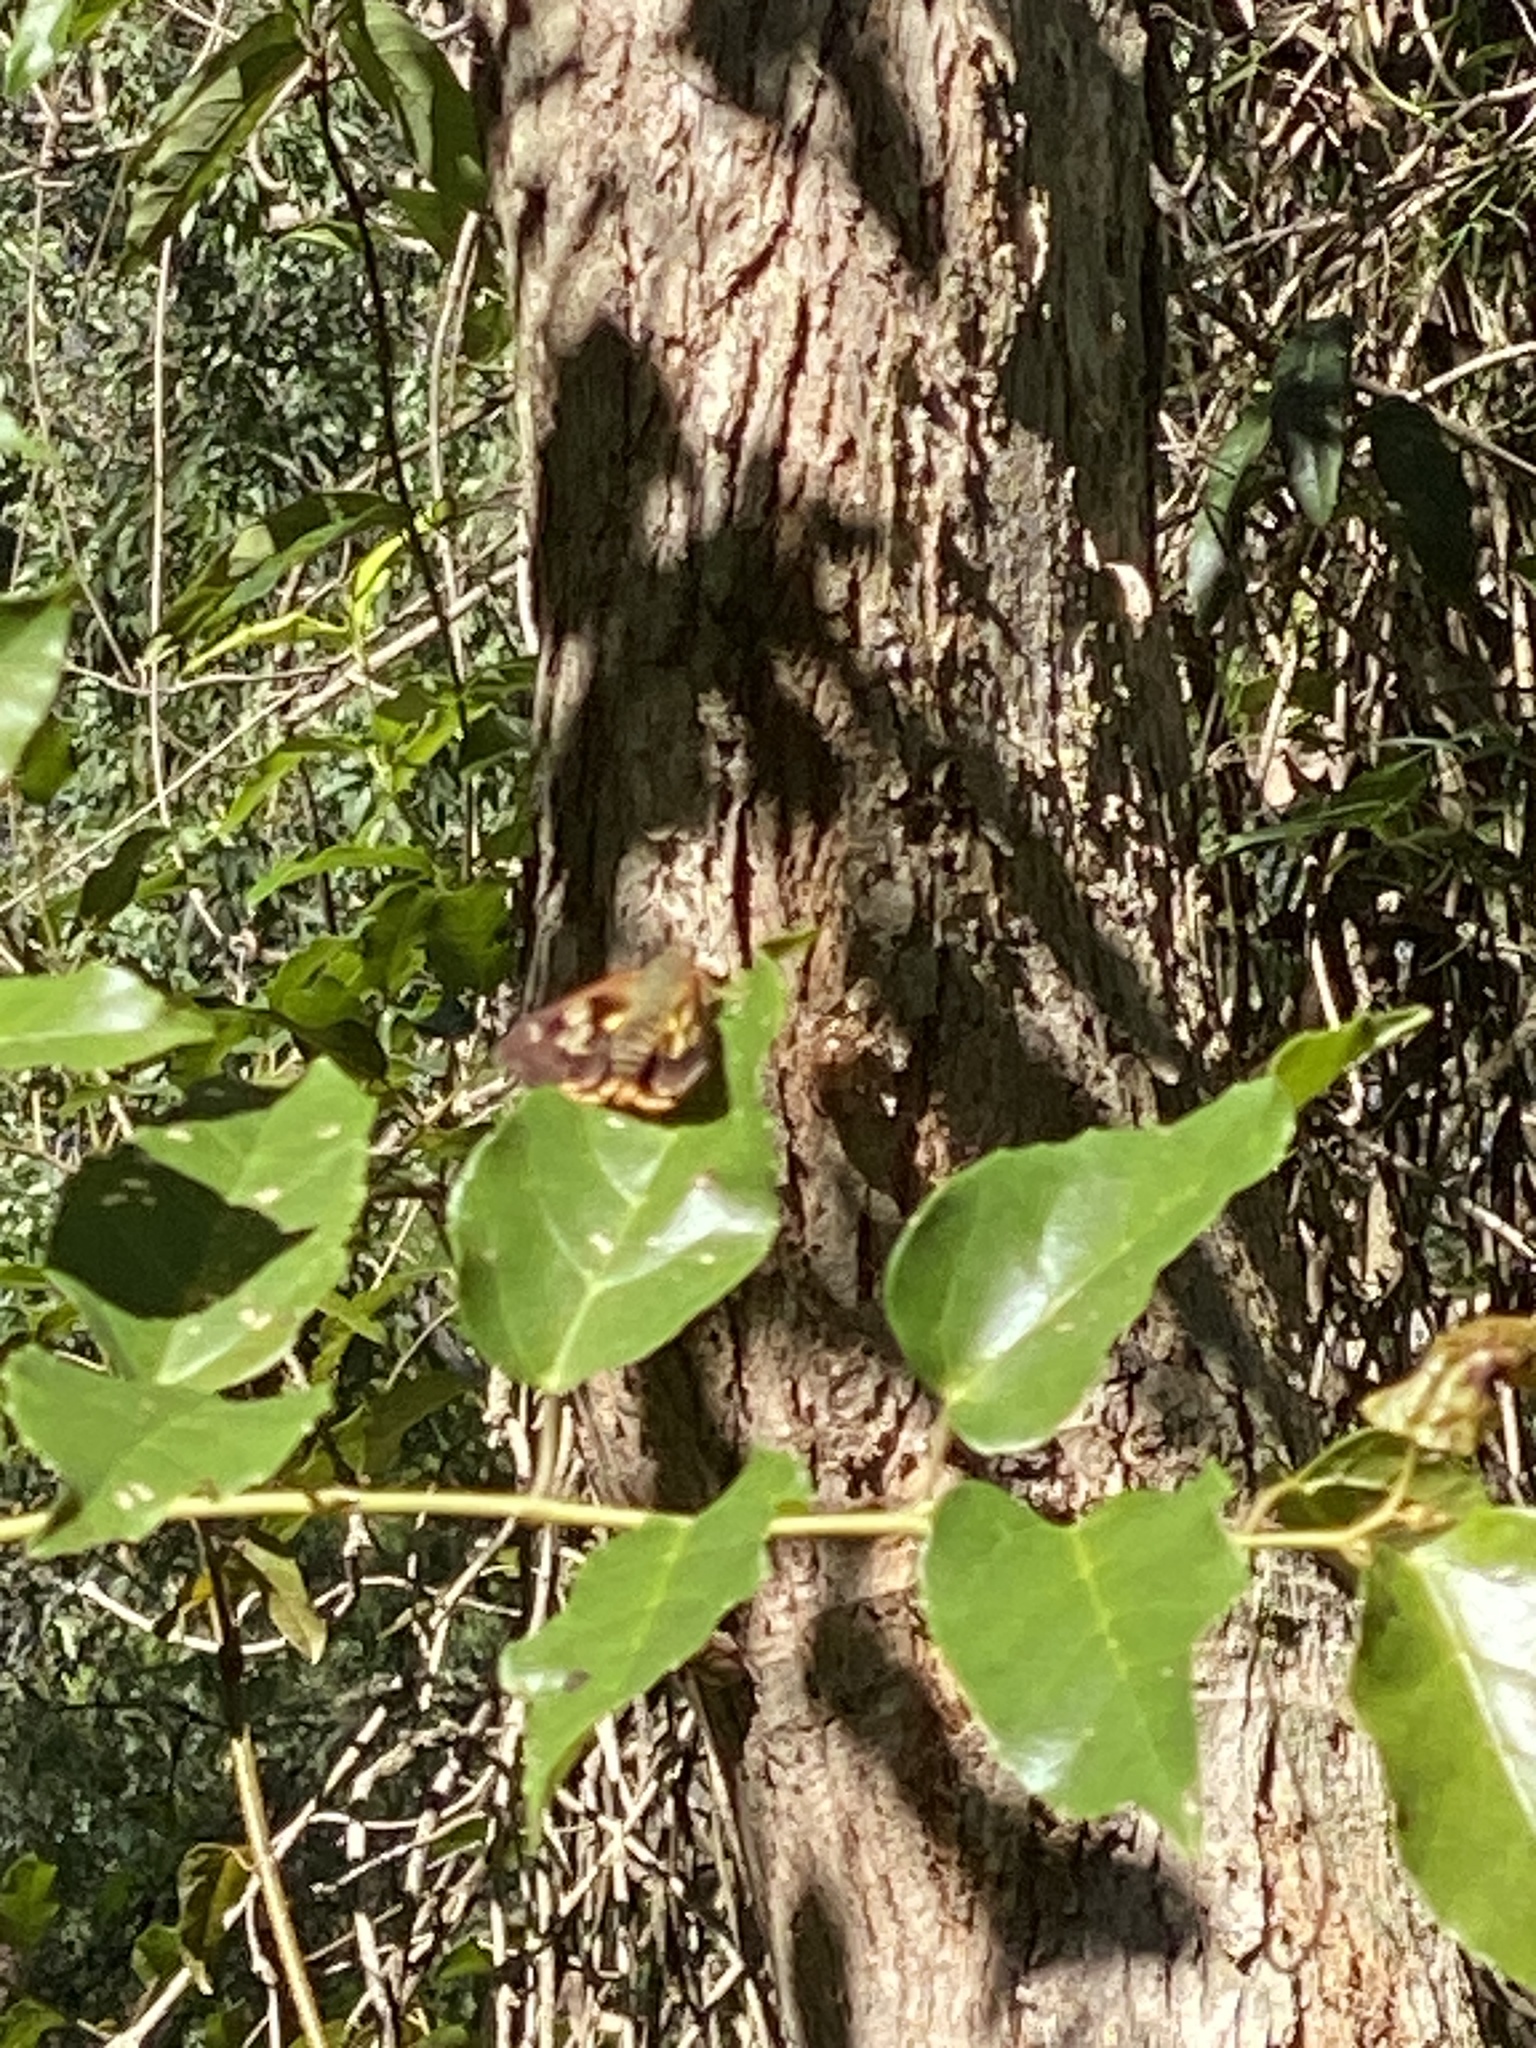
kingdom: Animalia
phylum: Arthropoda
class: Insecta
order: Lepidoptera
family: Hesperiidae
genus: Trapezites
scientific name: Trapezites symmomus
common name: Splendid ochre
